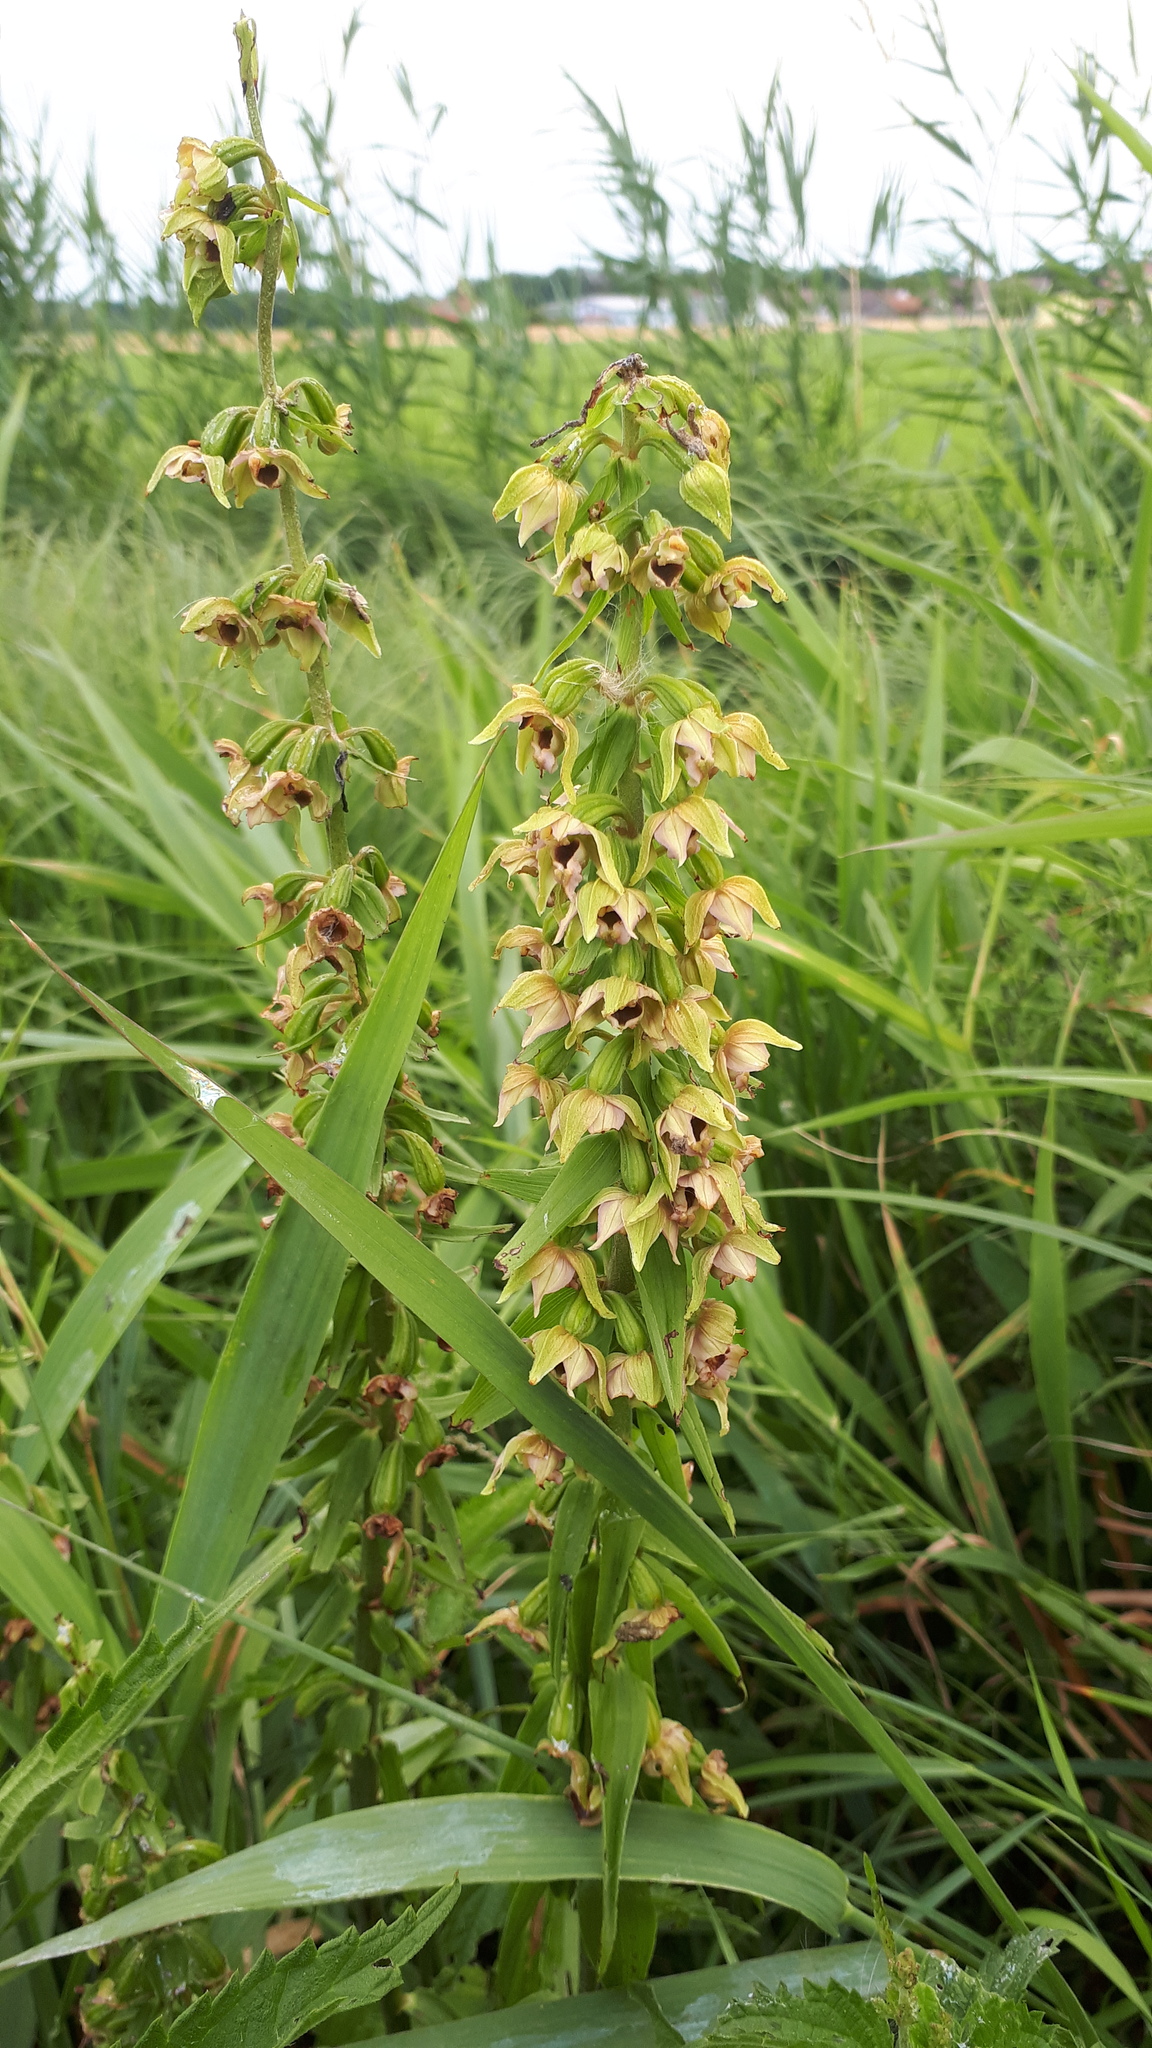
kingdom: Plantae
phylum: Tracheophyta
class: Liliopsida
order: Asparagales
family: Orchidaceae
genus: Epipactis
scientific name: Epipactis helleborine
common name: Broad-leaved helleborine
